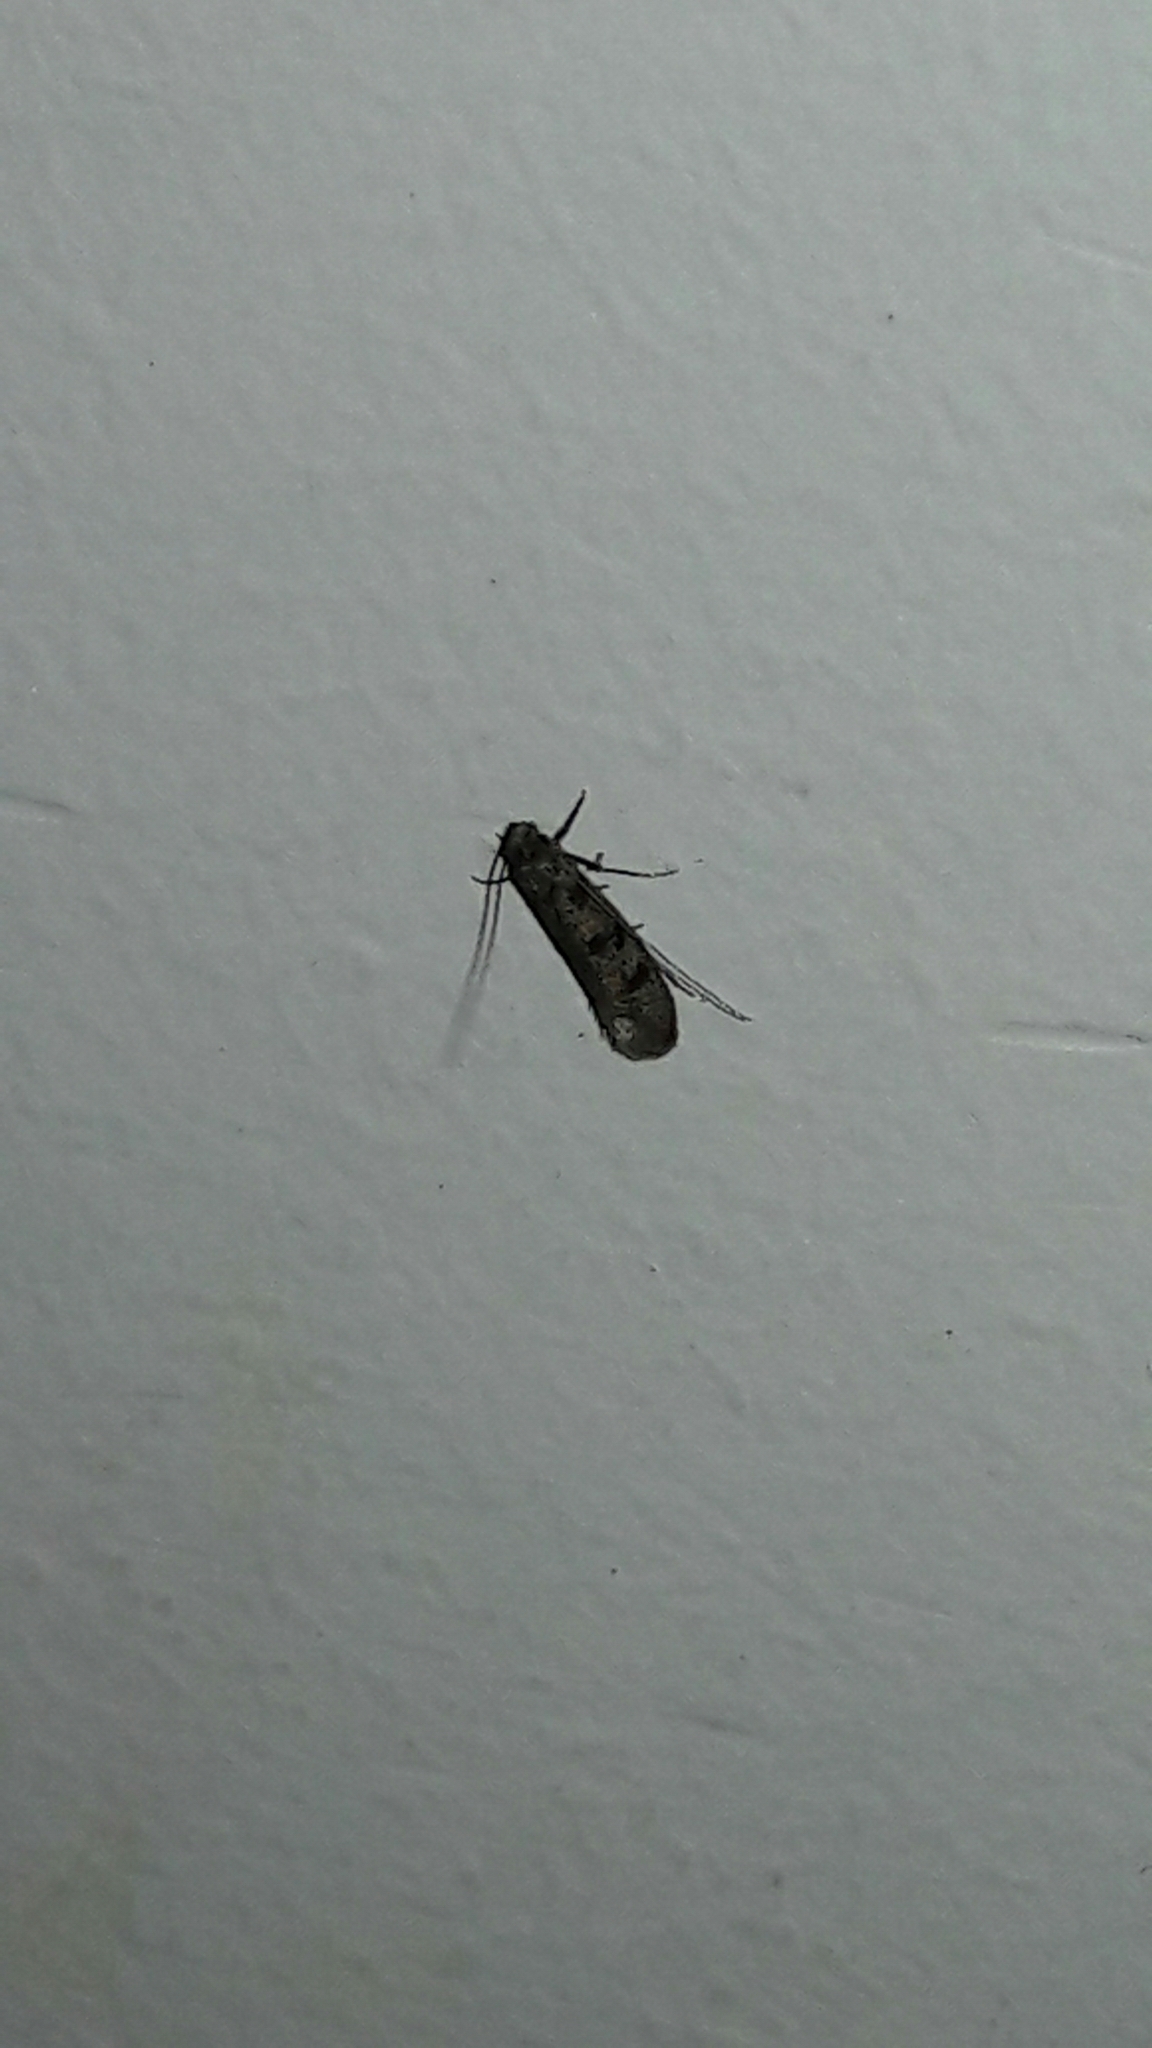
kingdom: Animalia
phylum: Arthropoda
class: Insecta
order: Lepidoptera
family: Tineidae
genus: Phereoeca
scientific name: Phereoeca uterella
